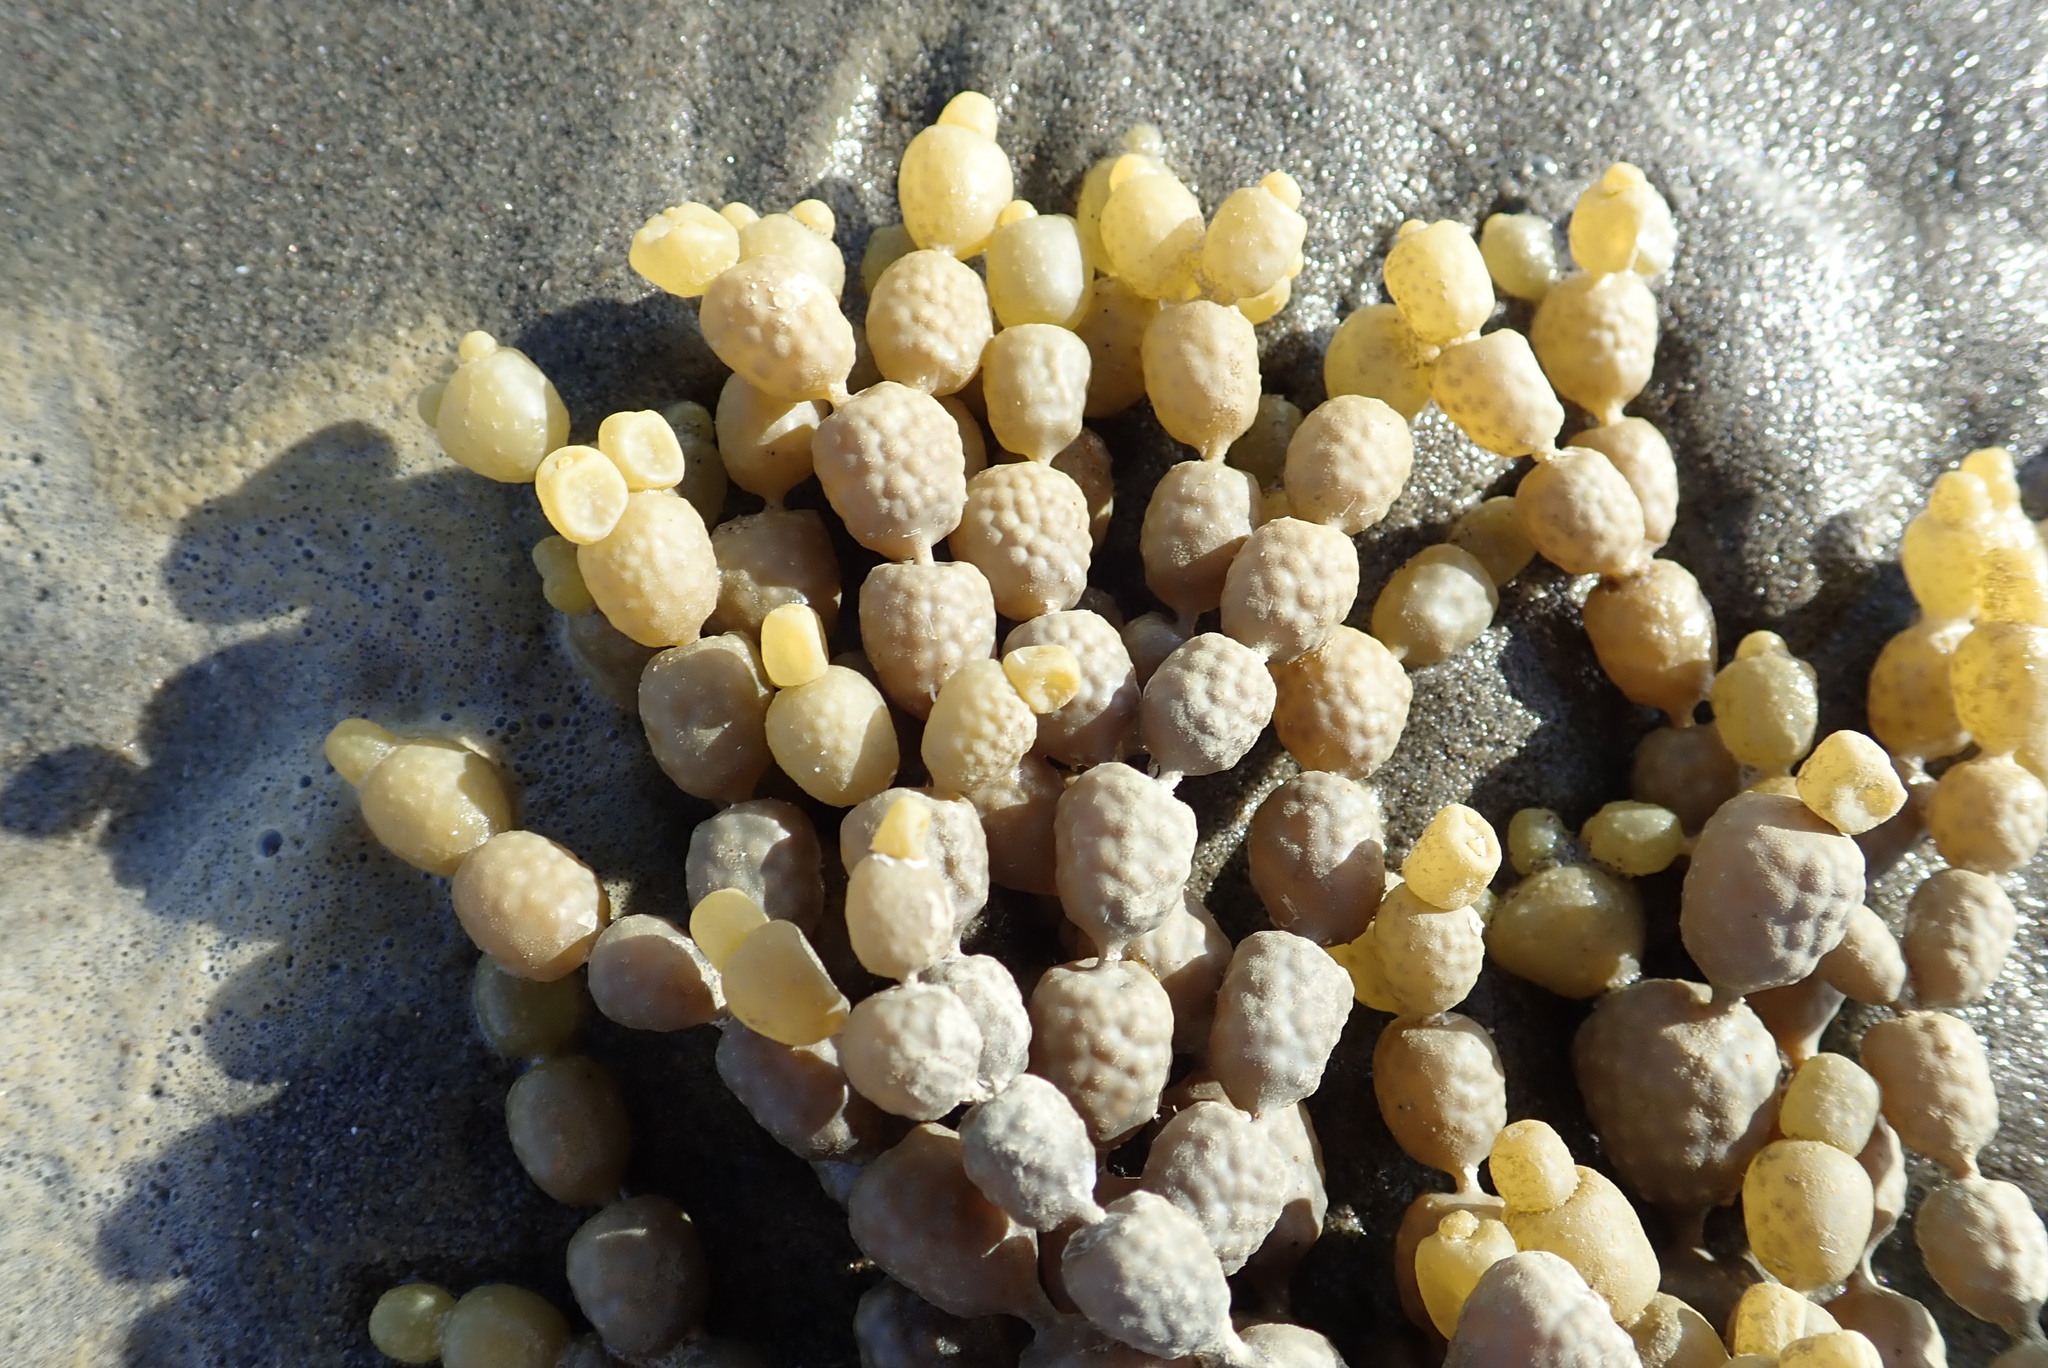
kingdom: Chromista
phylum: Ochrophyta
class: Phaeophyceae
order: Fucales
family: Hormosiraceae
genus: Hormosira
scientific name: Hormosira banksii
